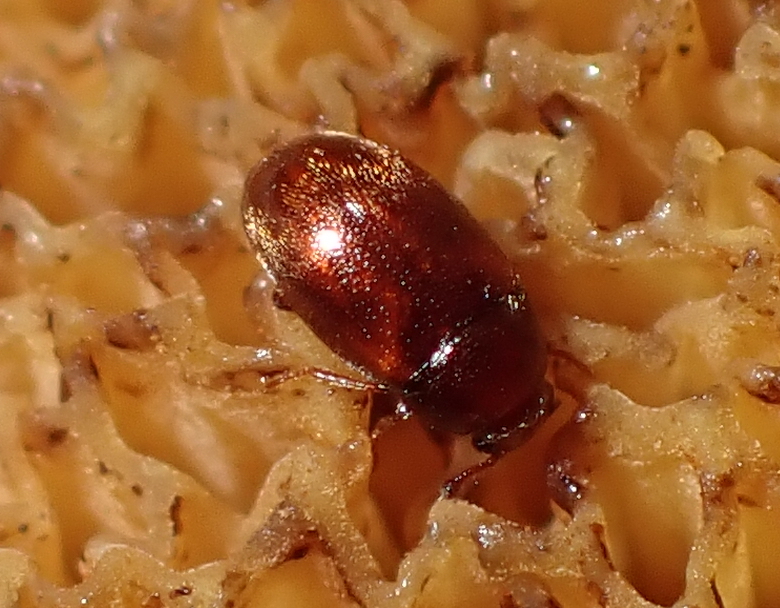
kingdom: Animalia
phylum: Arthropoda
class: Insecta
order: Coleoptera
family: Mycetophagidae
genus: Nototriphyllus
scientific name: Nototriphyllus
